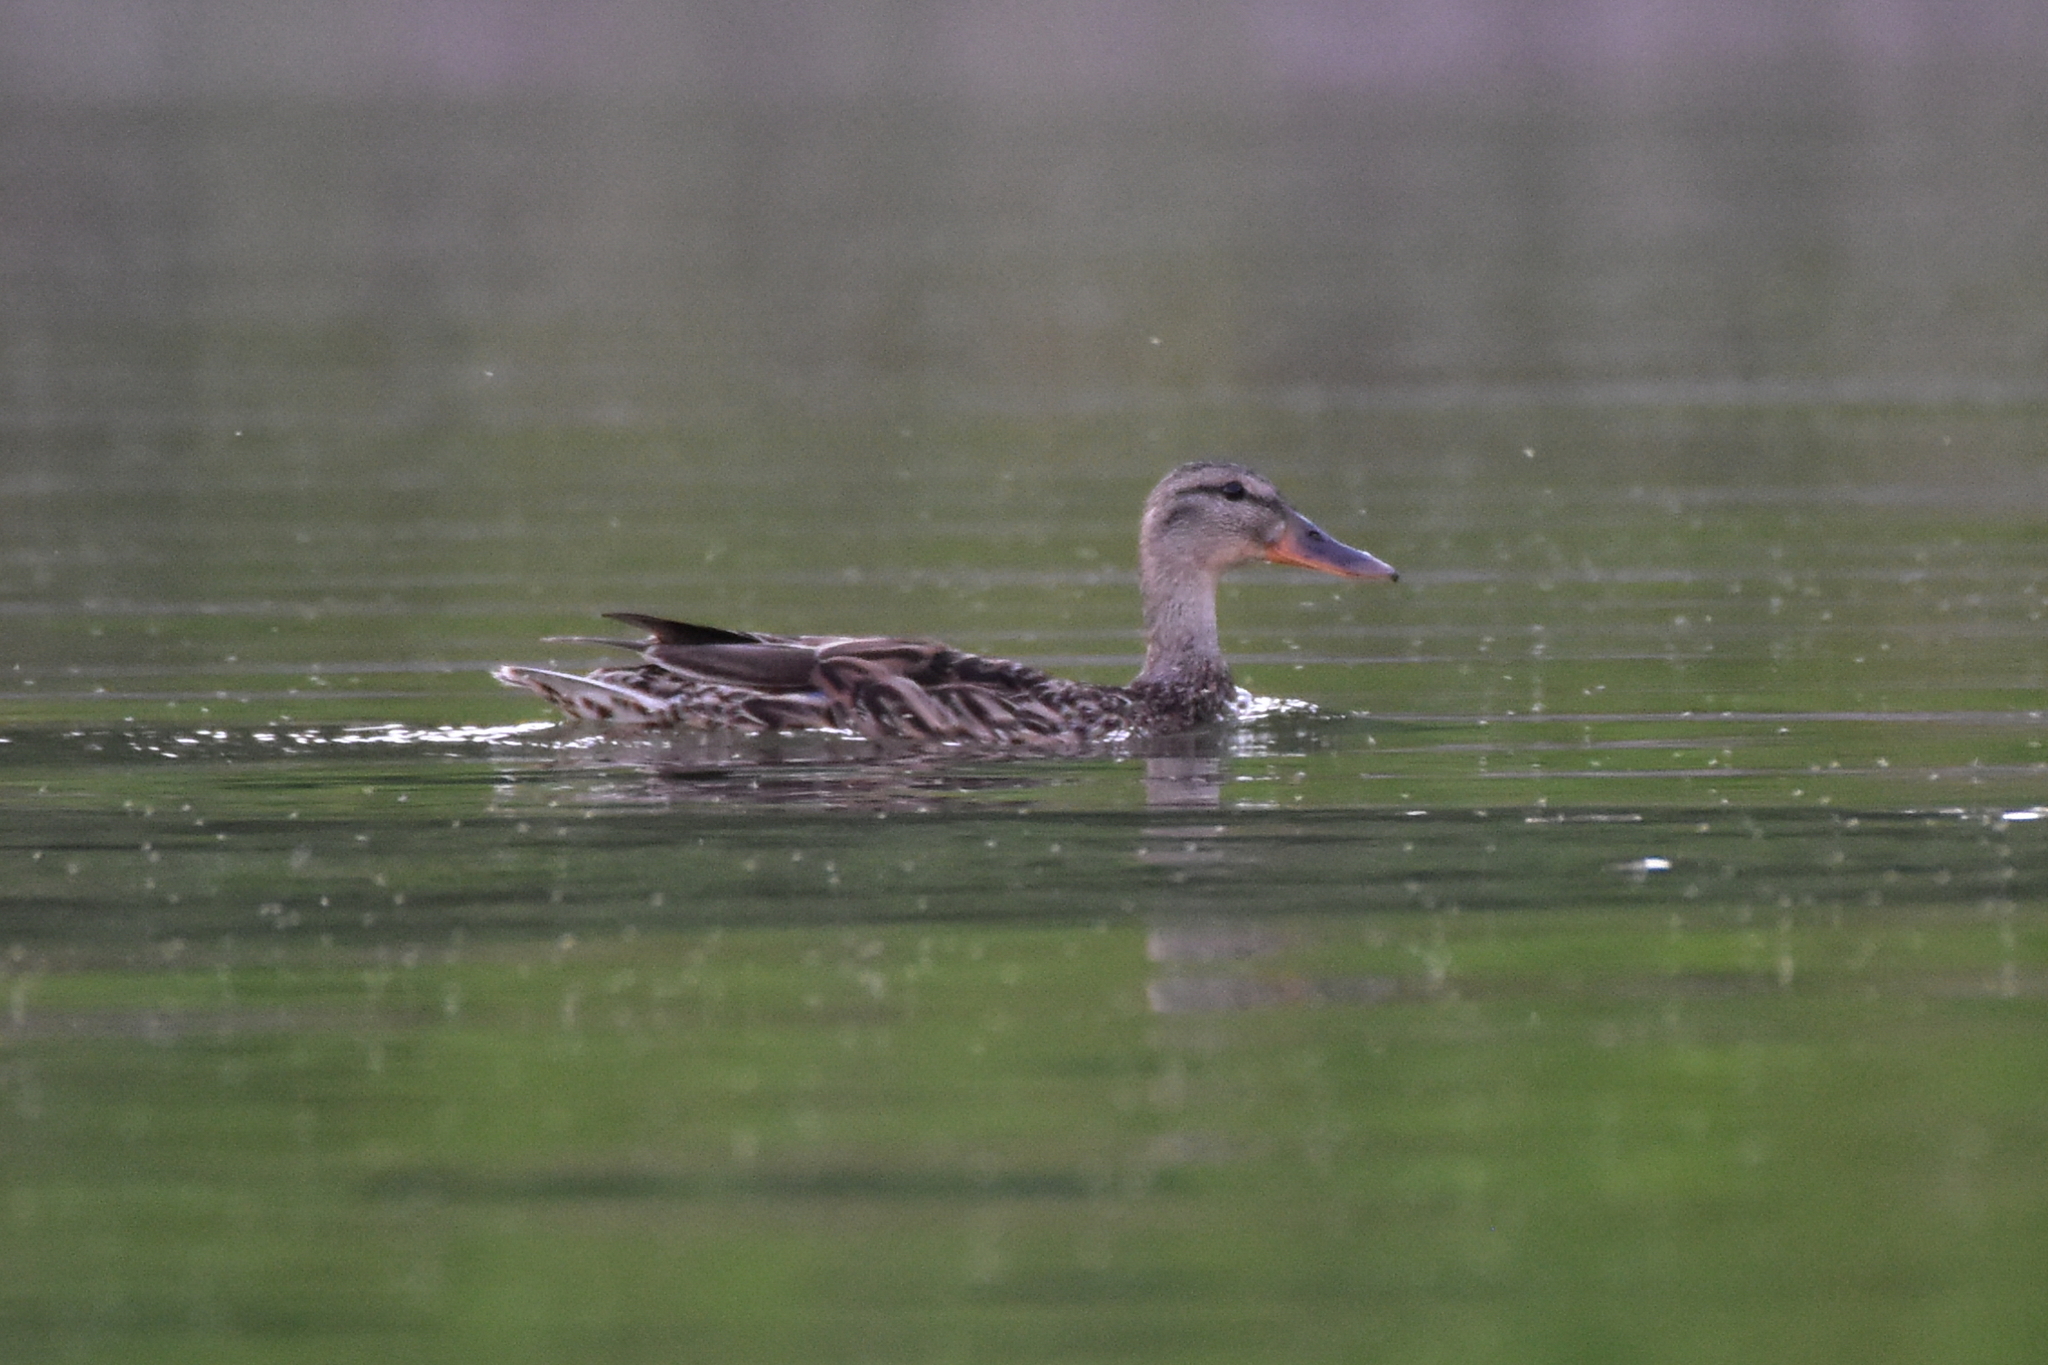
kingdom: Animalia
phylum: Chordata
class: Aves
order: Anseriformes
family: Anatidae
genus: Anas
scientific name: Anas platyrhynchos
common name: Mallard
